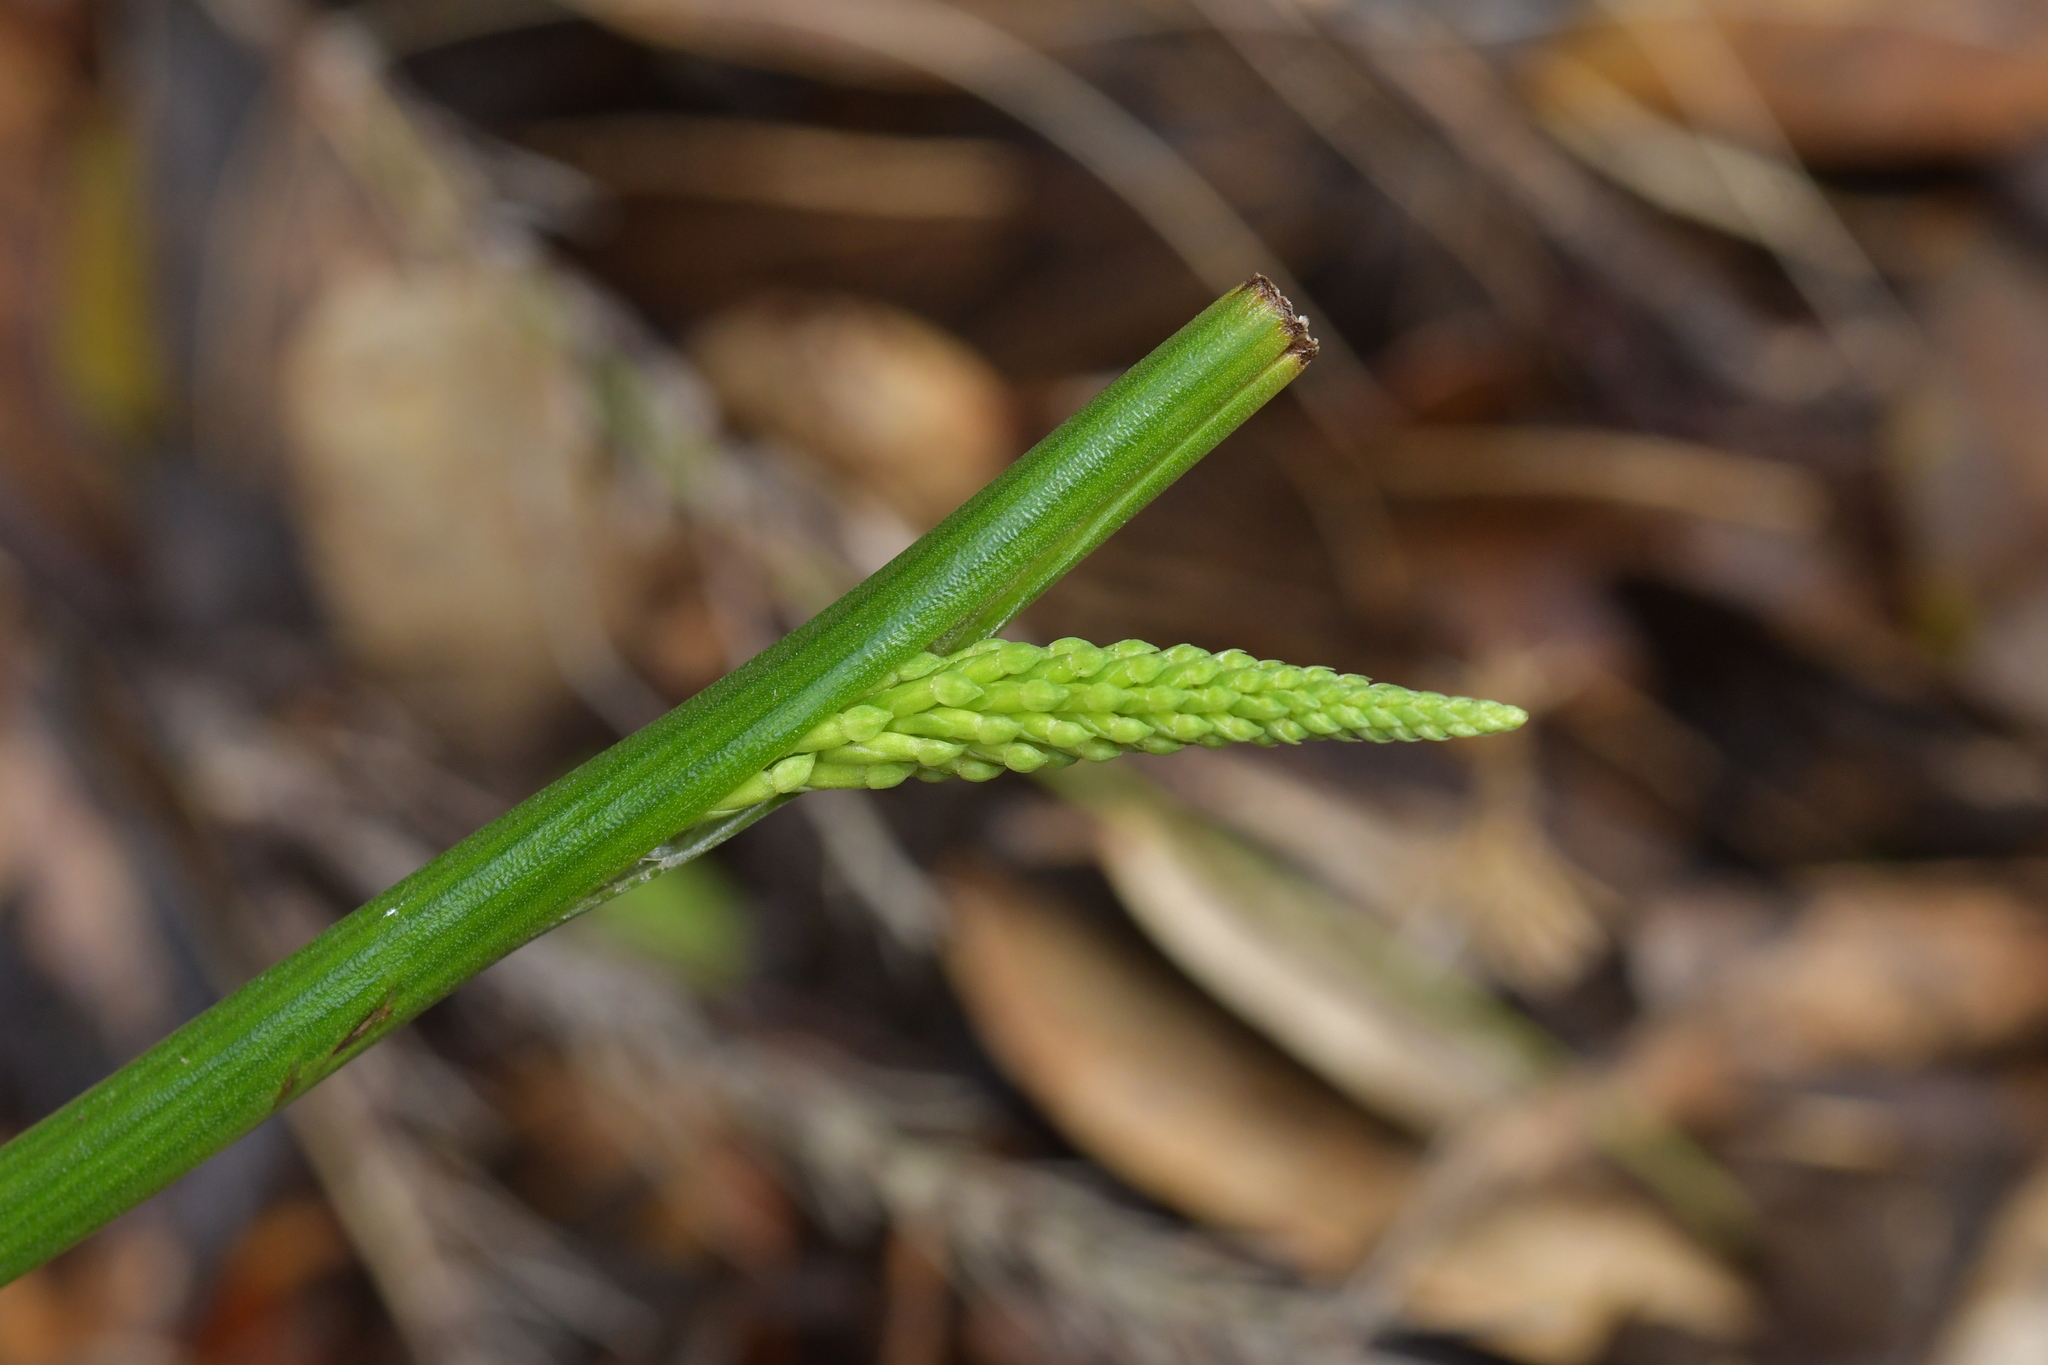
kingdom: Plantae
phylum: Tracheophyta
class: Liliopsida
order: Asparagales
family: Orchidaceae
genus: Microtis
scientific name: Microtis unifolia
